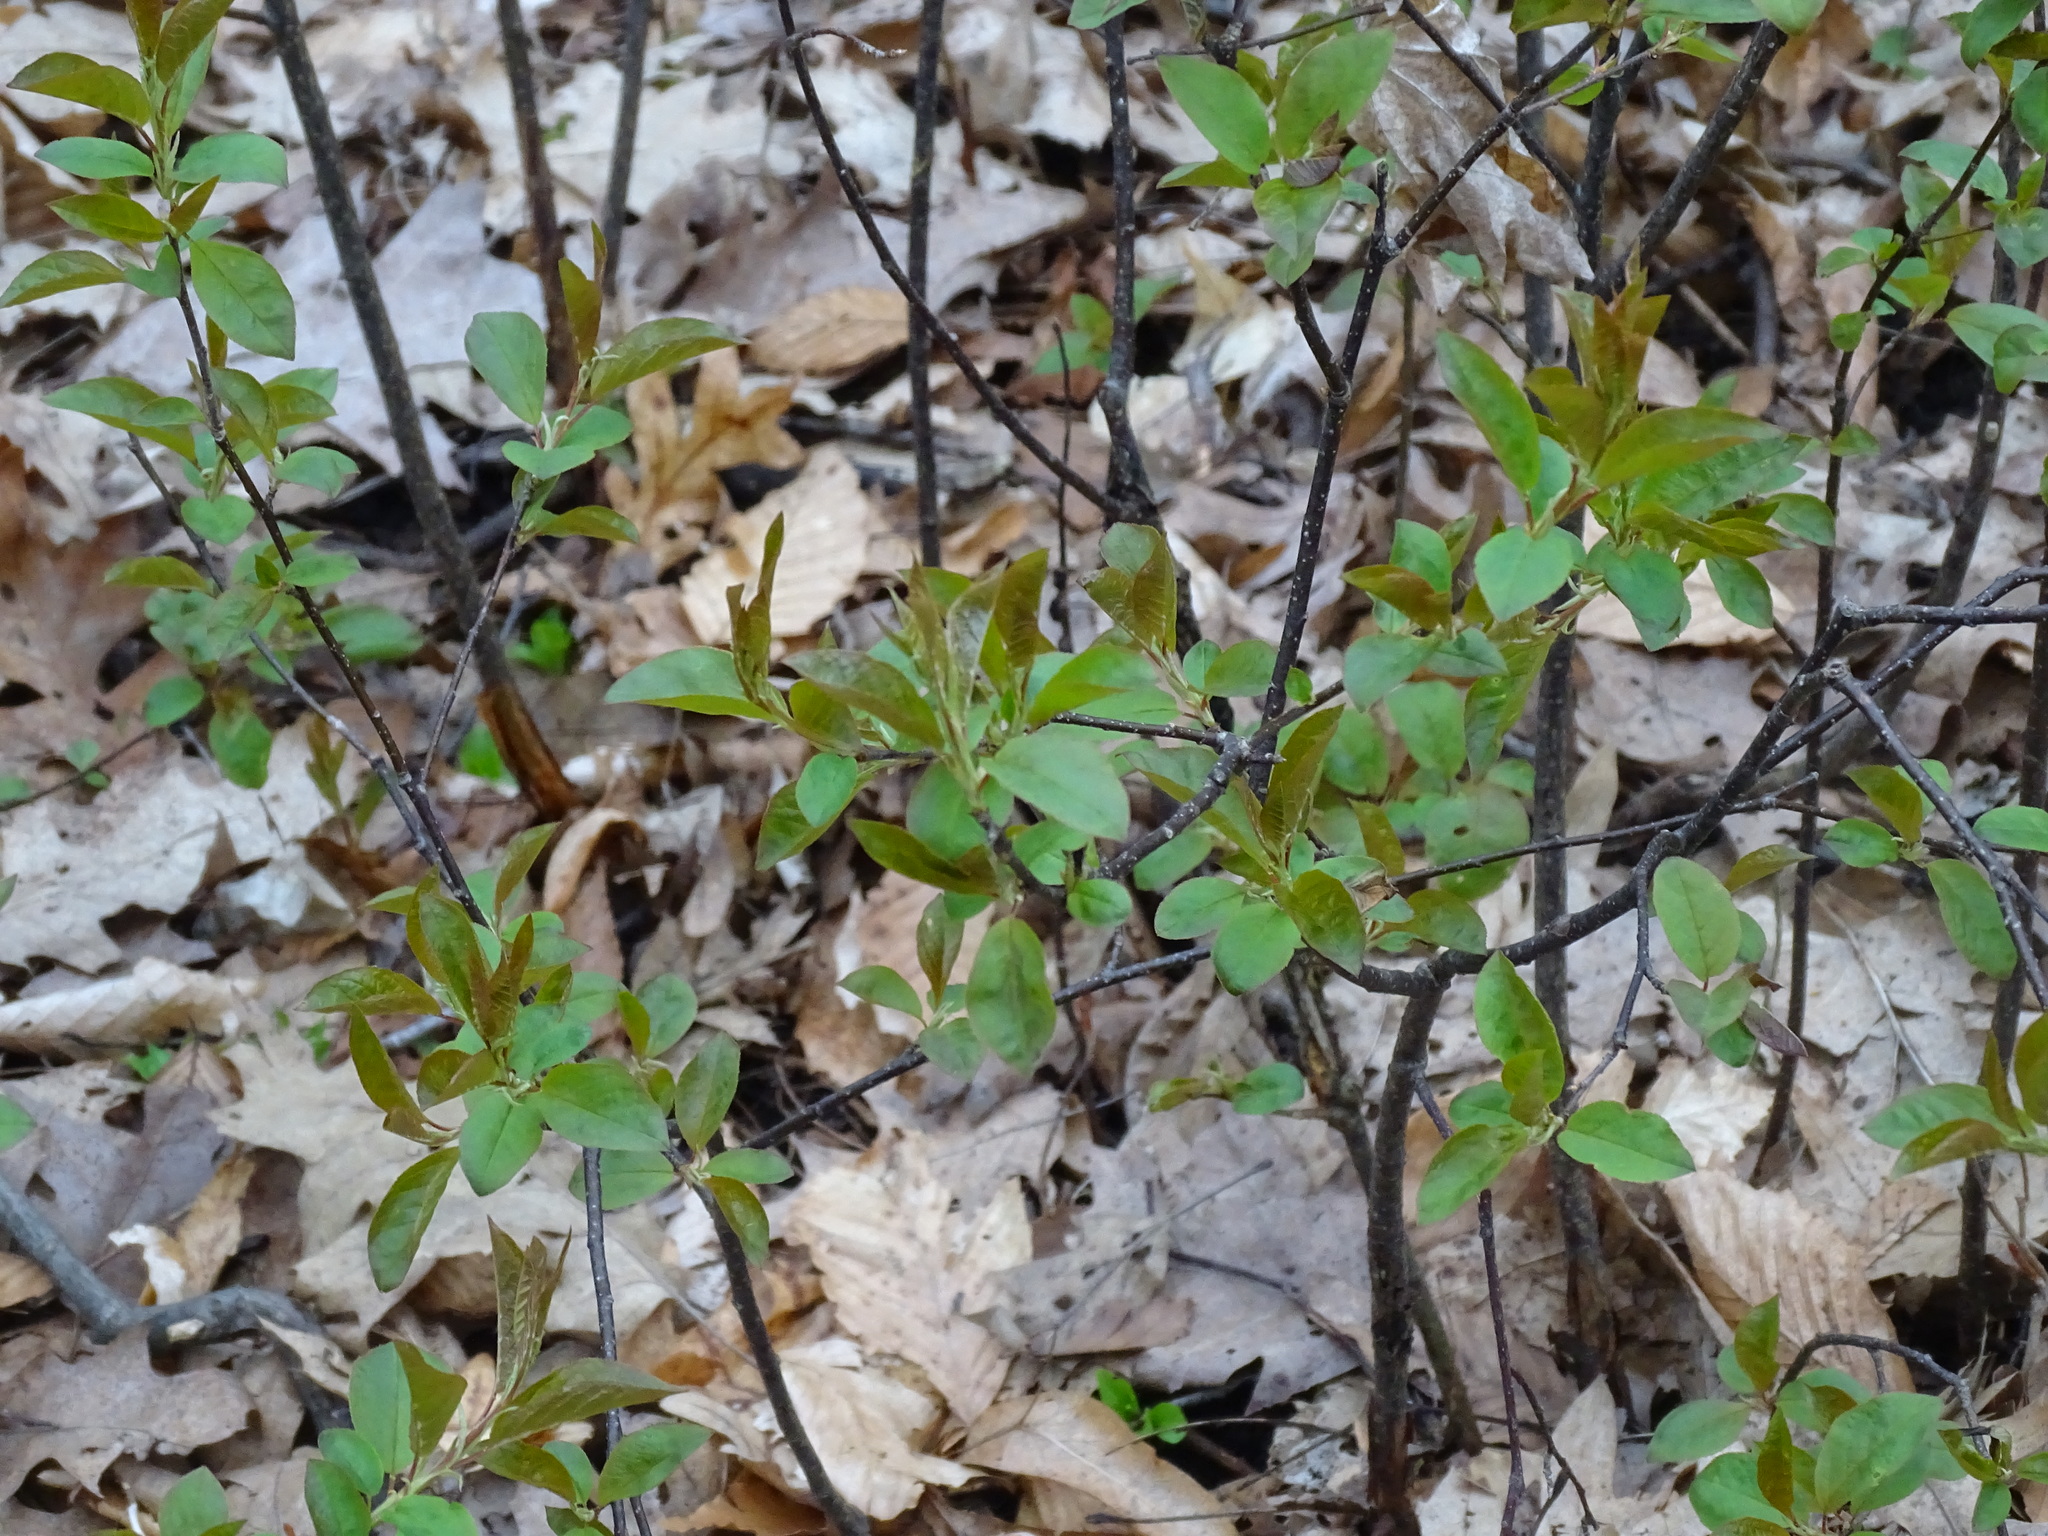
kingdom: Plantae
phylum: Tracheophyta
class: Magnoliopsida
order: Rosales
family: Rosaceae
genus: Prunus
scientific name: Prunus virginiana
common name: Chokecherry
